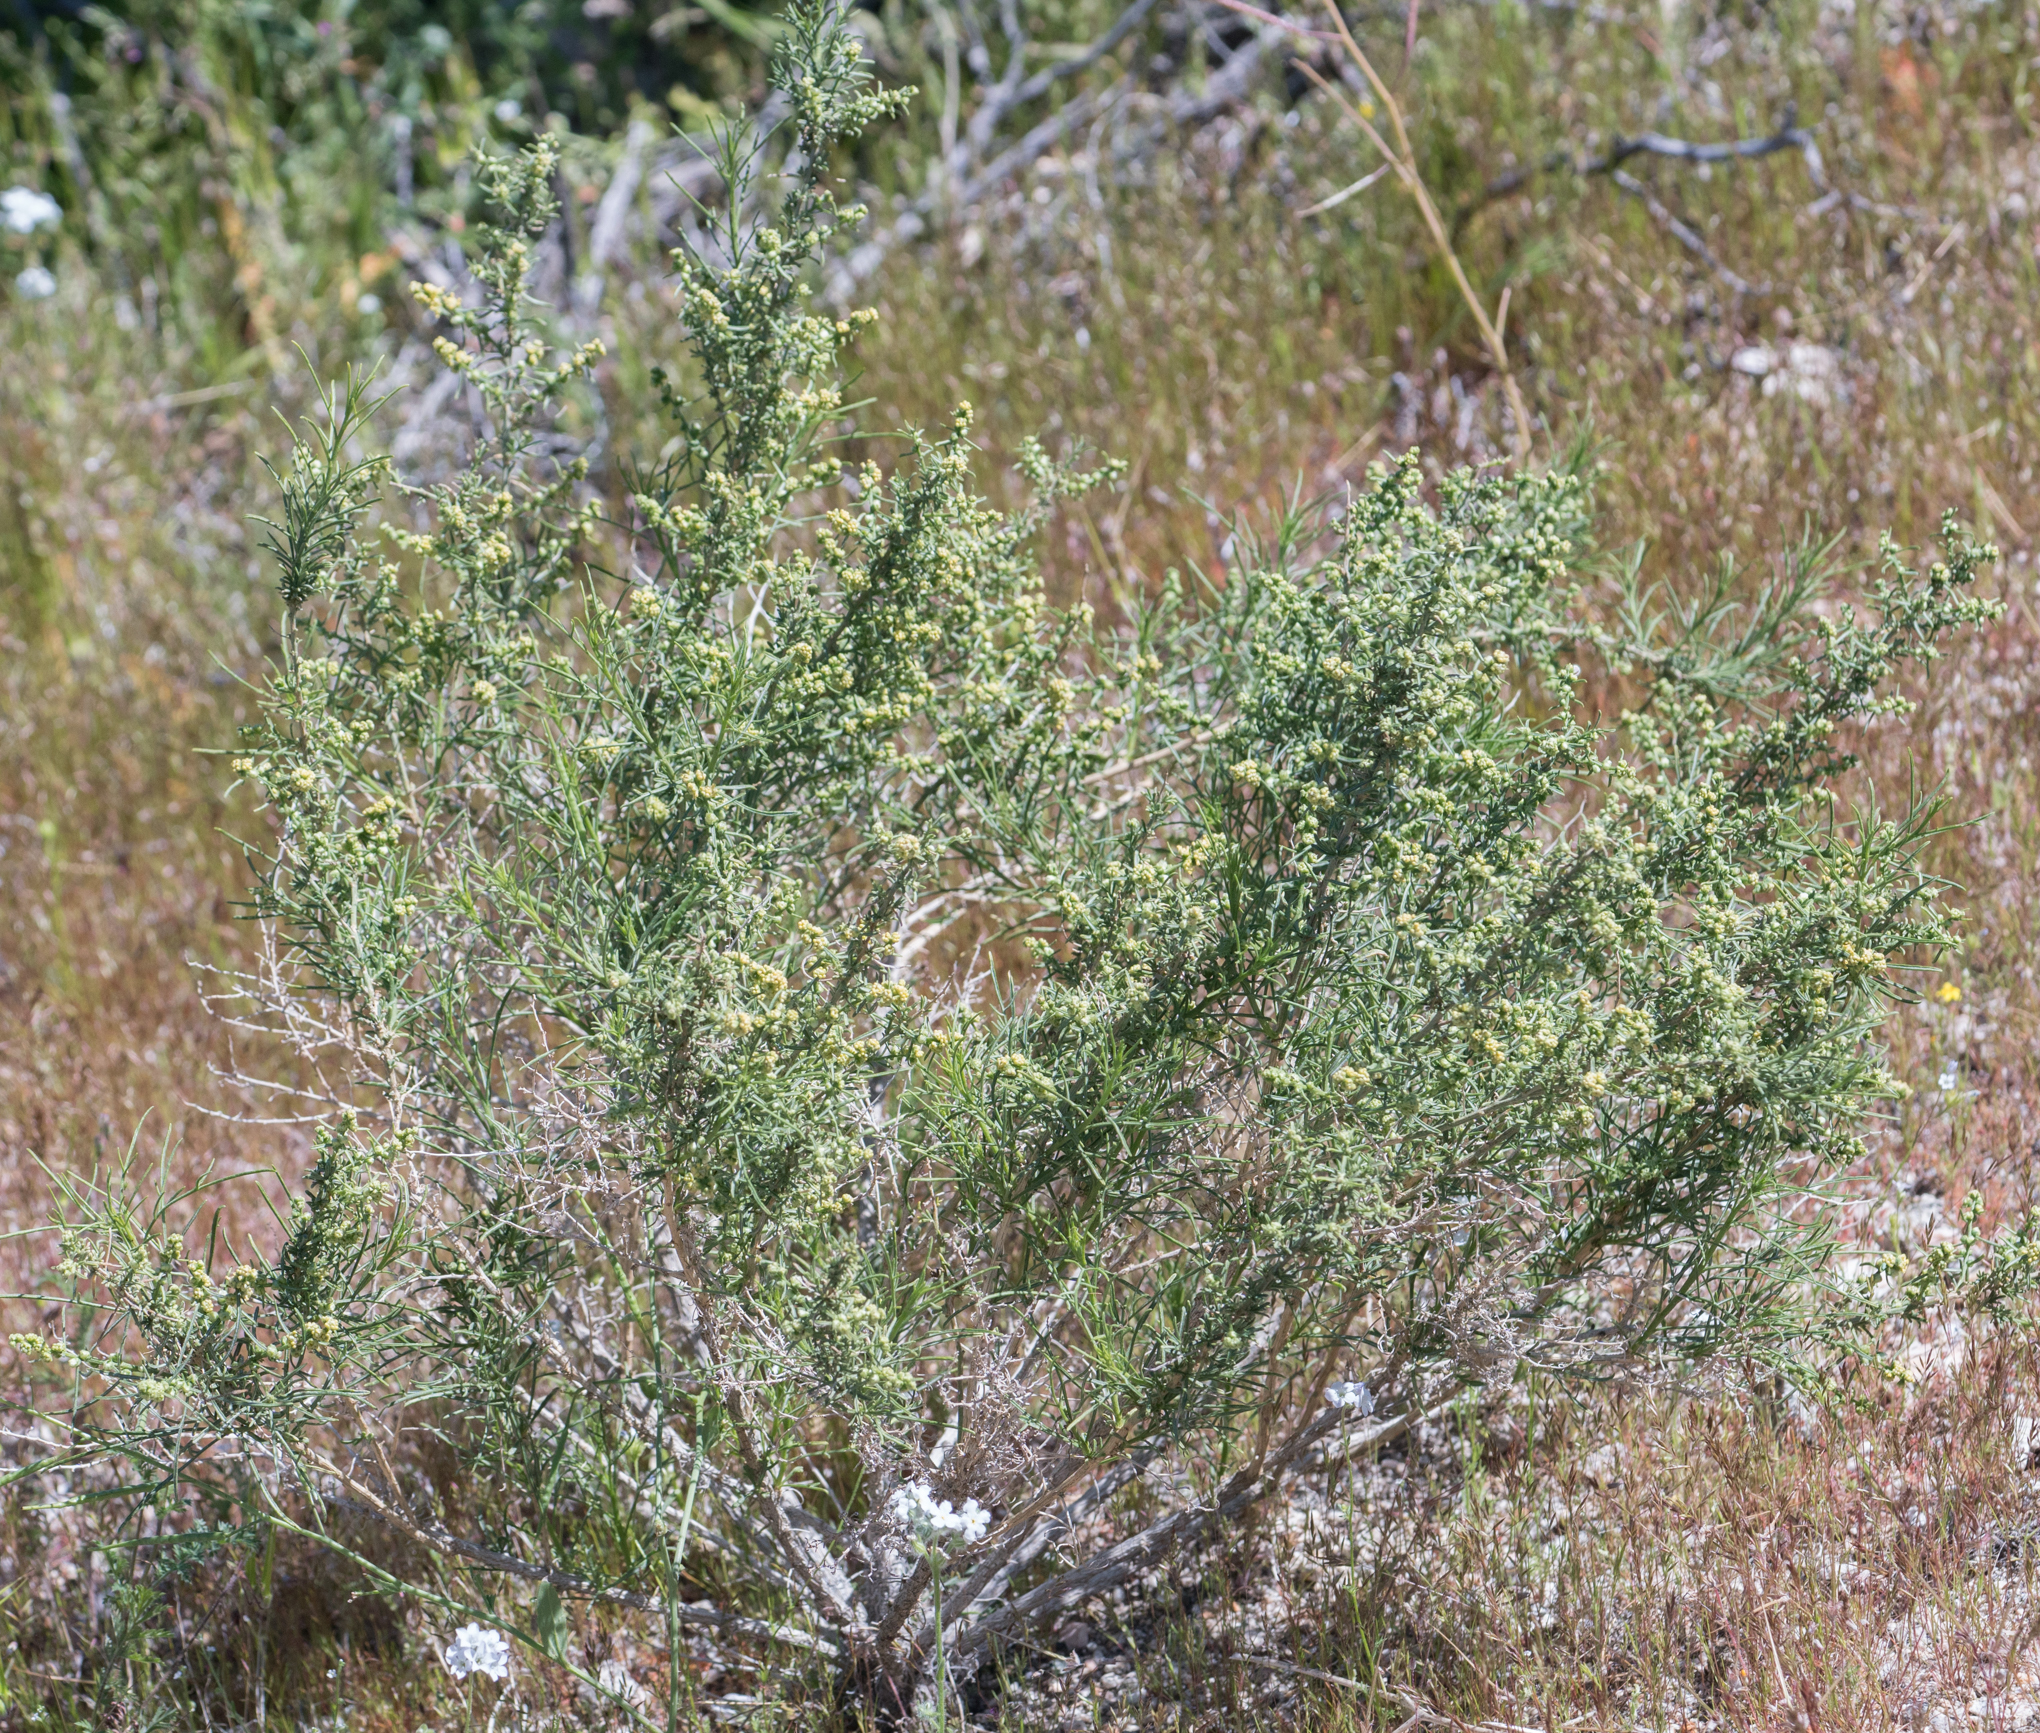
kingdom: Plantae
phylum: Tracheophyta
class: Magnoliopsida
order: Asterales
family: Asteraceae
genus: Ambrosia
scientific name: Ambrosia salsola
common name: Burrobrush
